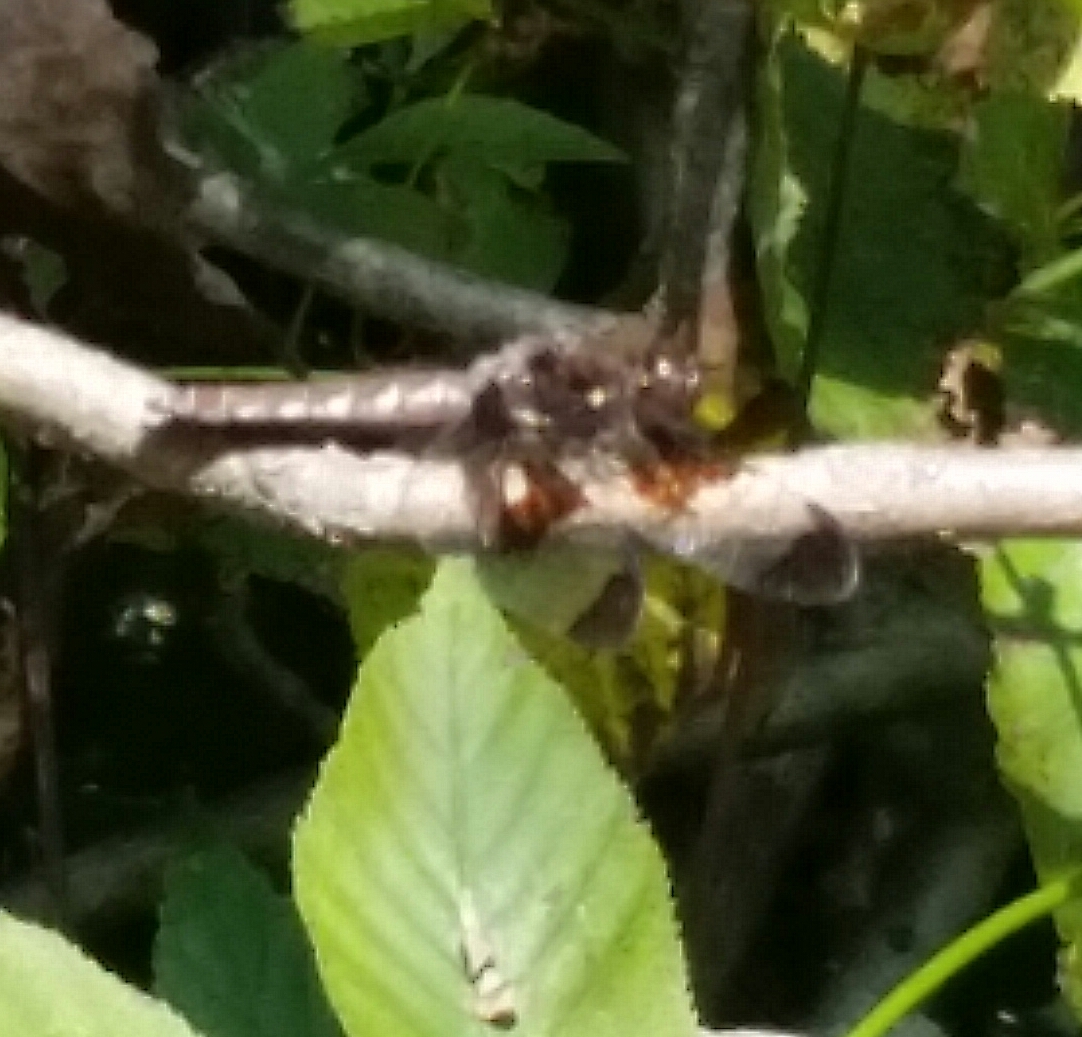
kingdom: Animalia
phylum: Arthropoda
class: Insecta
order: Odonata
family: Libellulidae
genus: Plathemis
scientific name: Plathemis lydia
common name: Common whitetail
